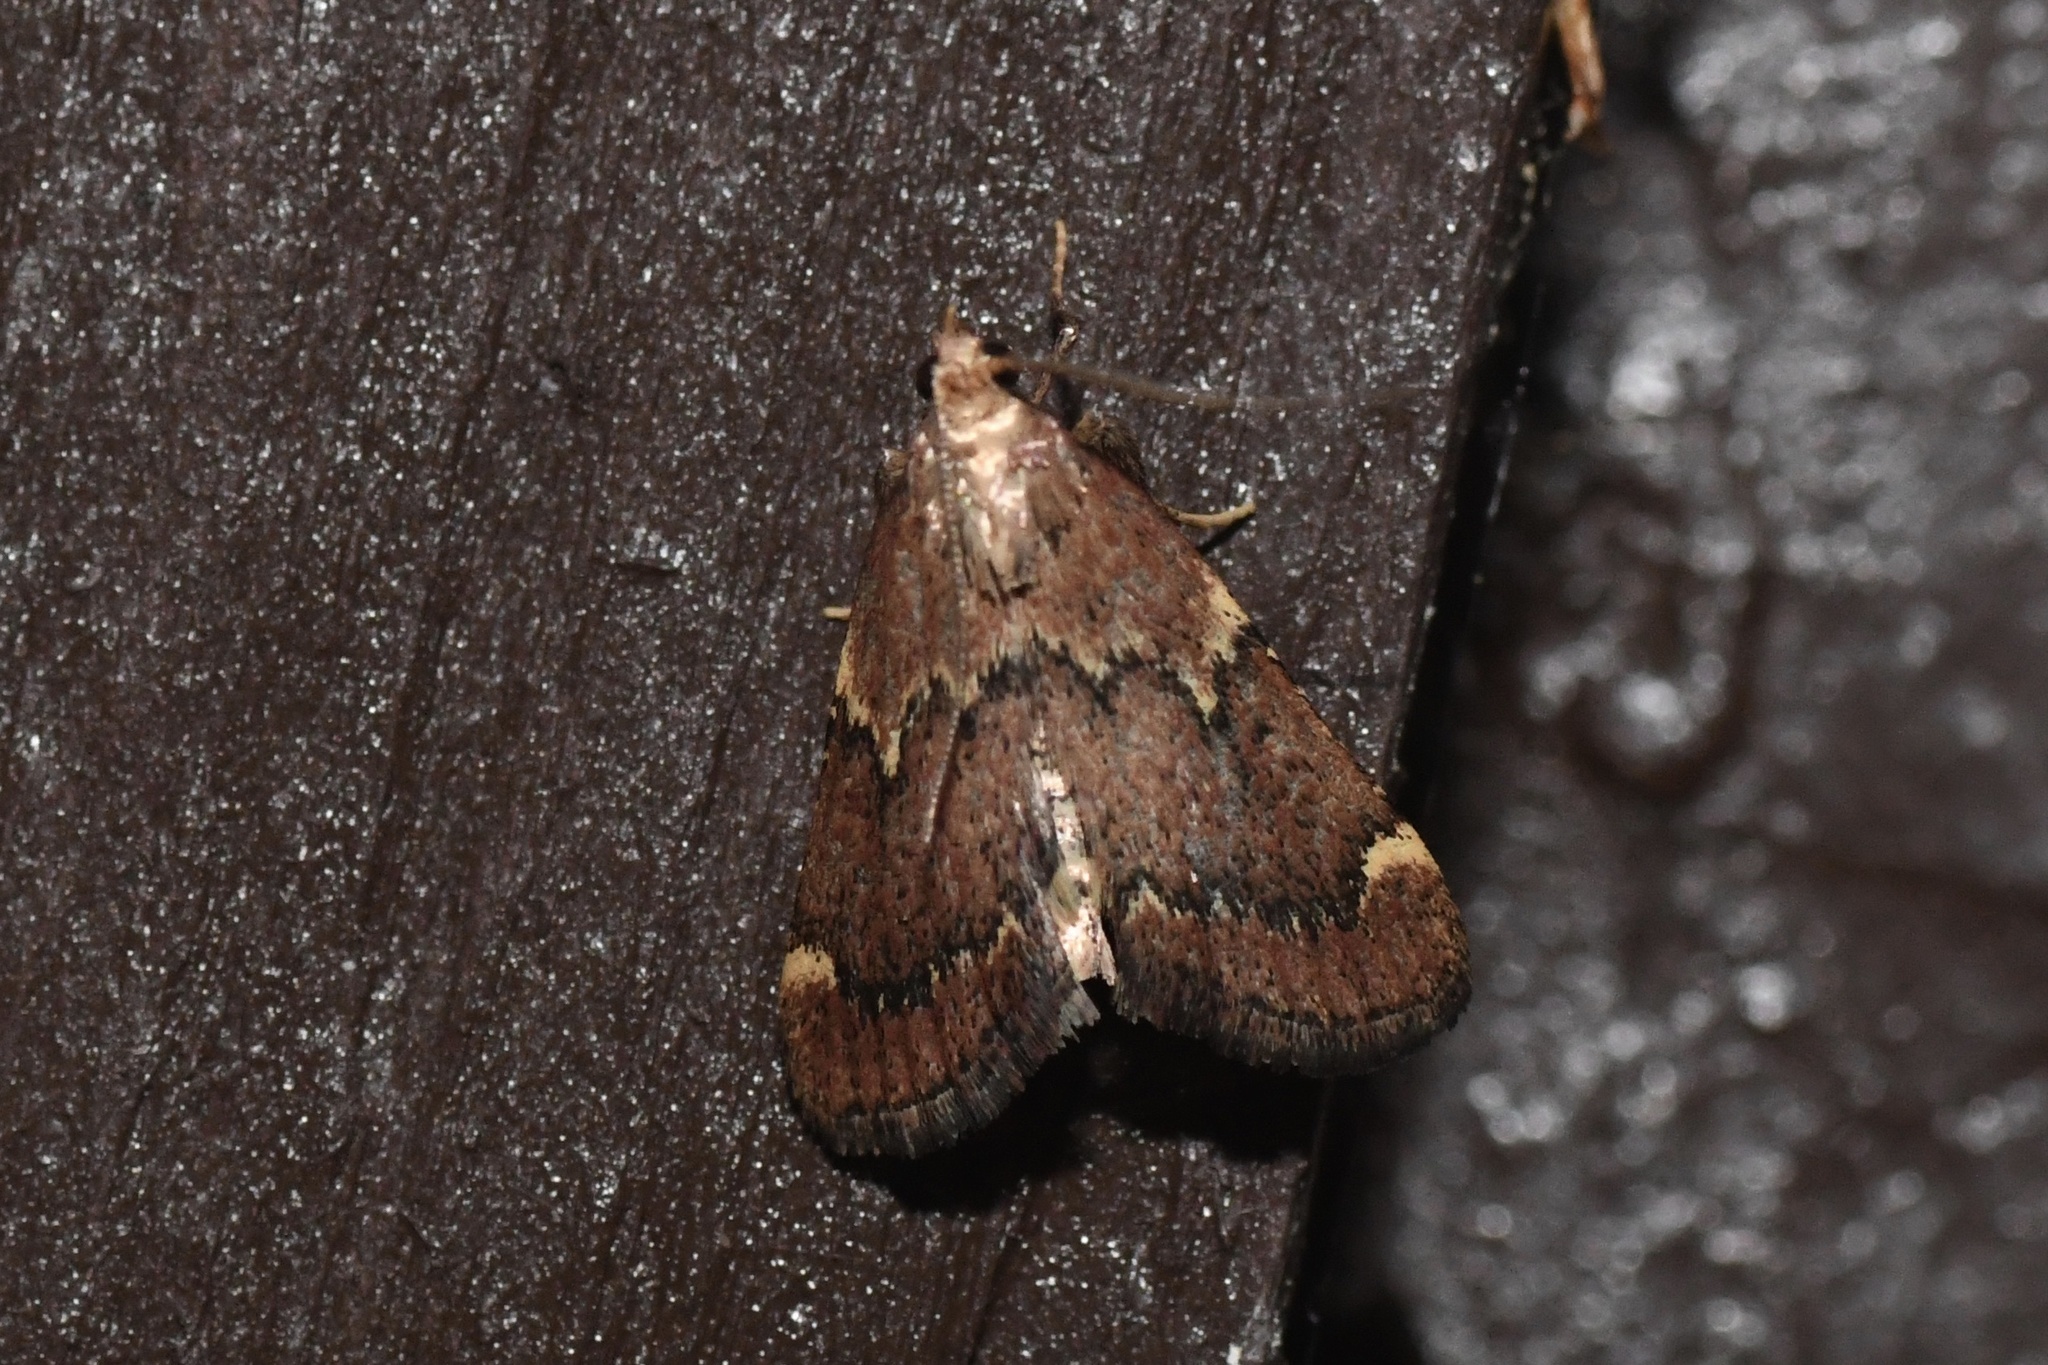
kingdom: Animalia
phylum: Arthropoda
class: Insecta
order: Lepidoptera
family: Pyralidae
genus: Hypsopygia
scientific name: Hypsopygia intermedialis
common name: Red-shawled moth
